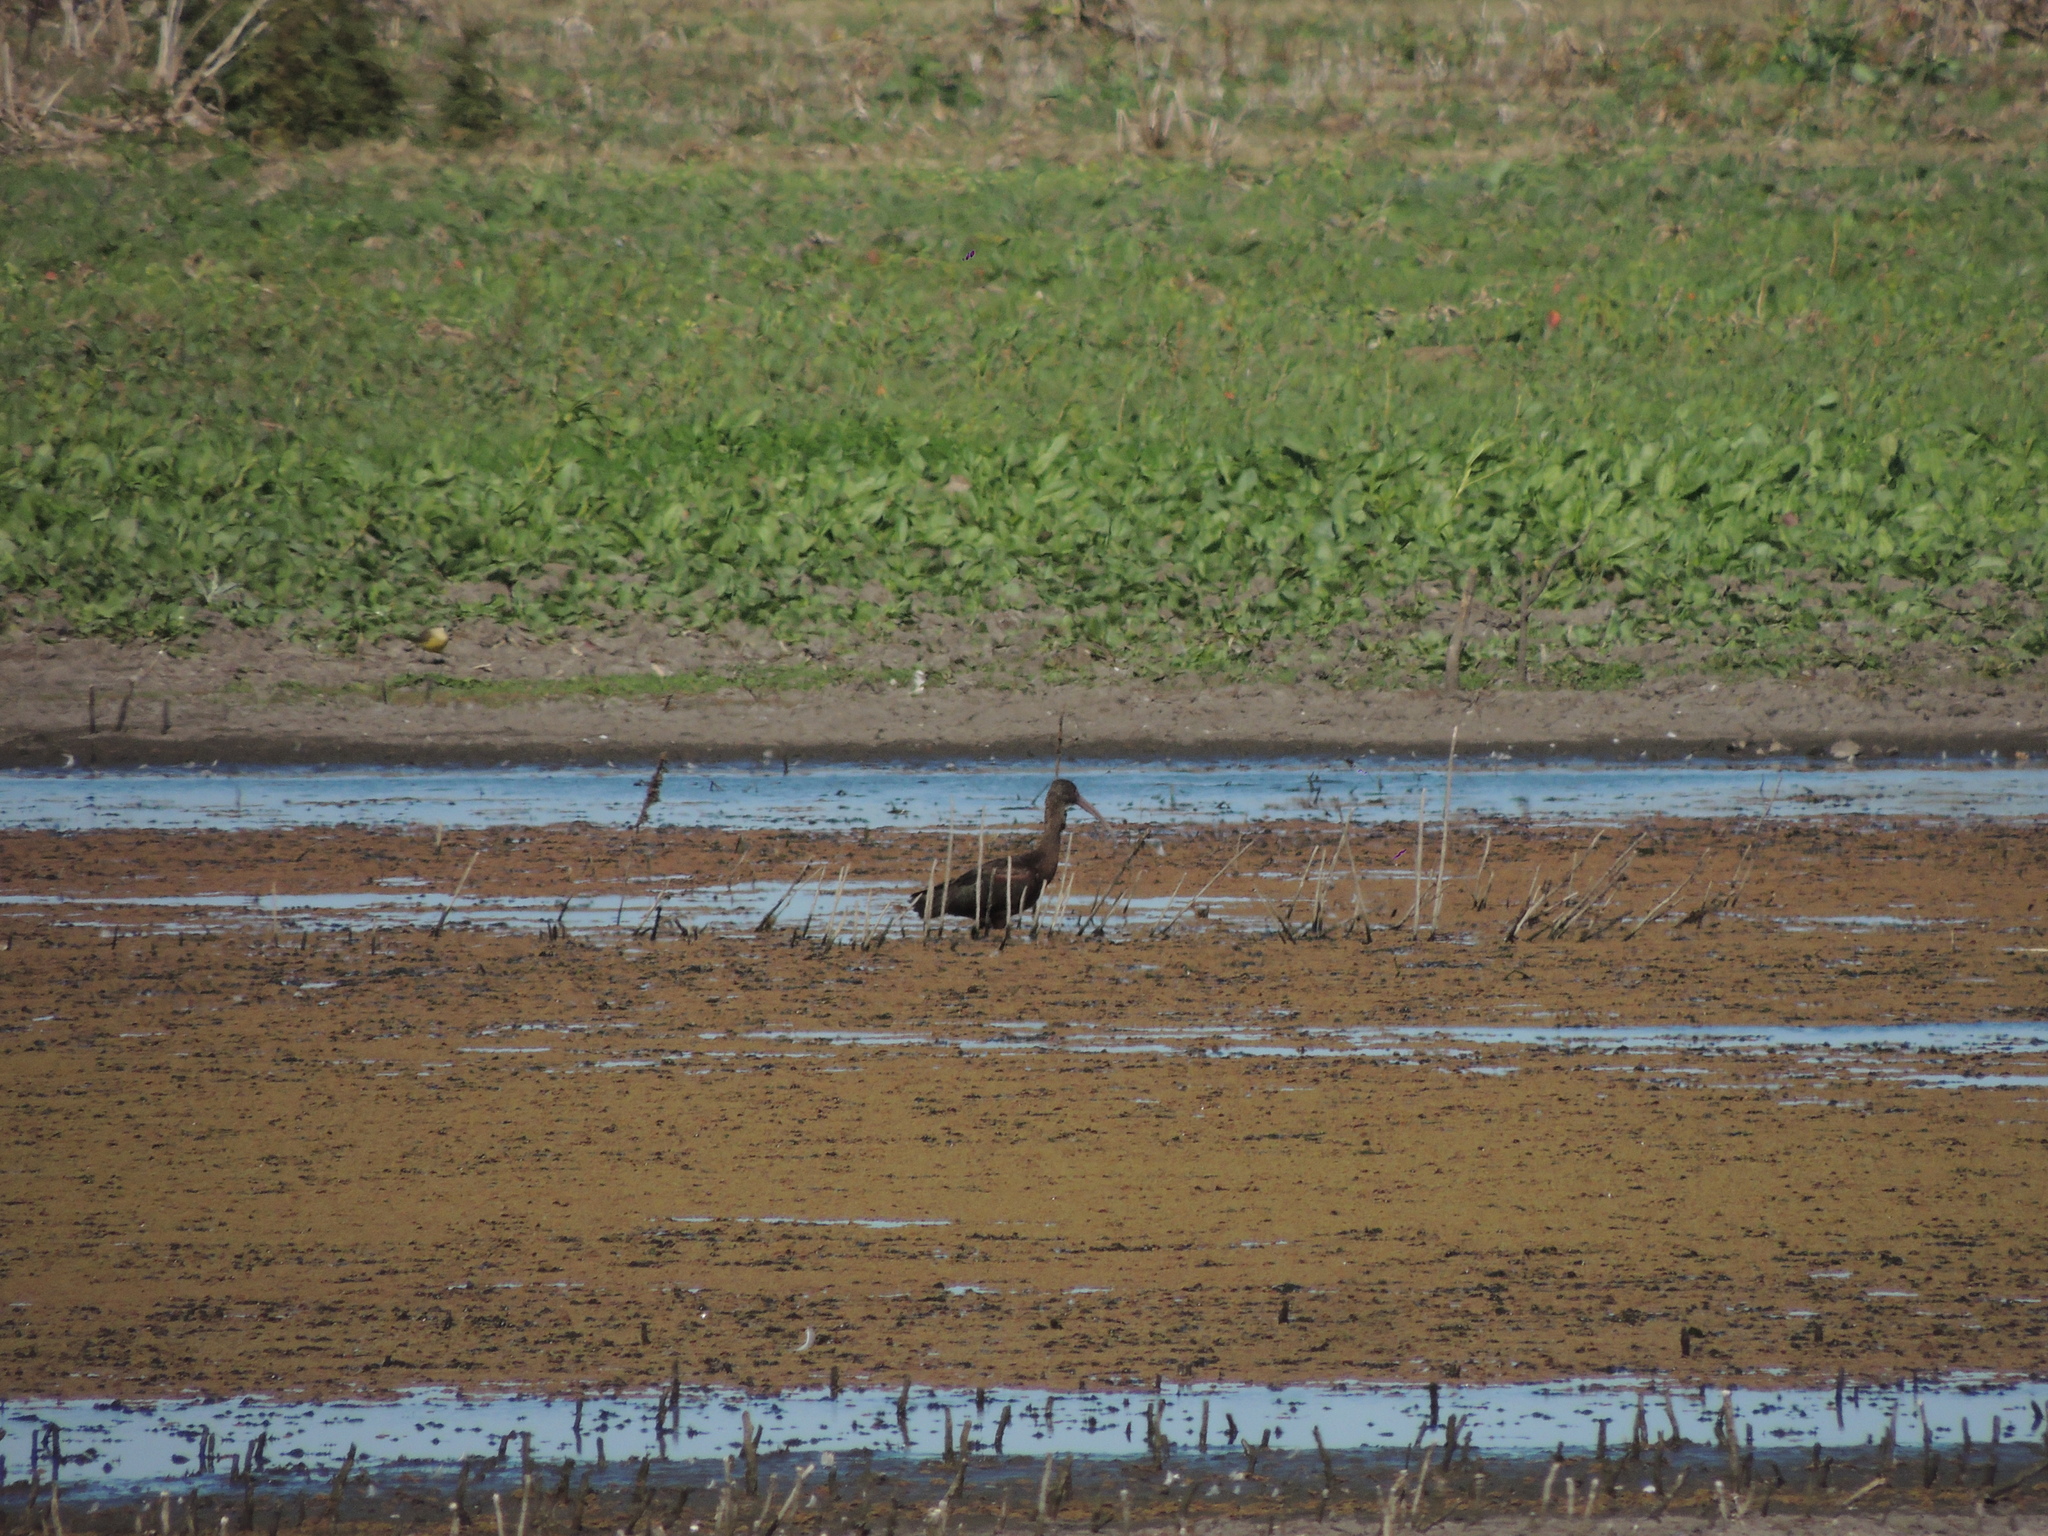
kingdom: Animalia
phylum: Chordata
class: Aves
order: Pelecaniformes
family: Threskiornithidae
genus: Plegadis
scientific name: Plegadis chihi
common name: White-faced ibis
